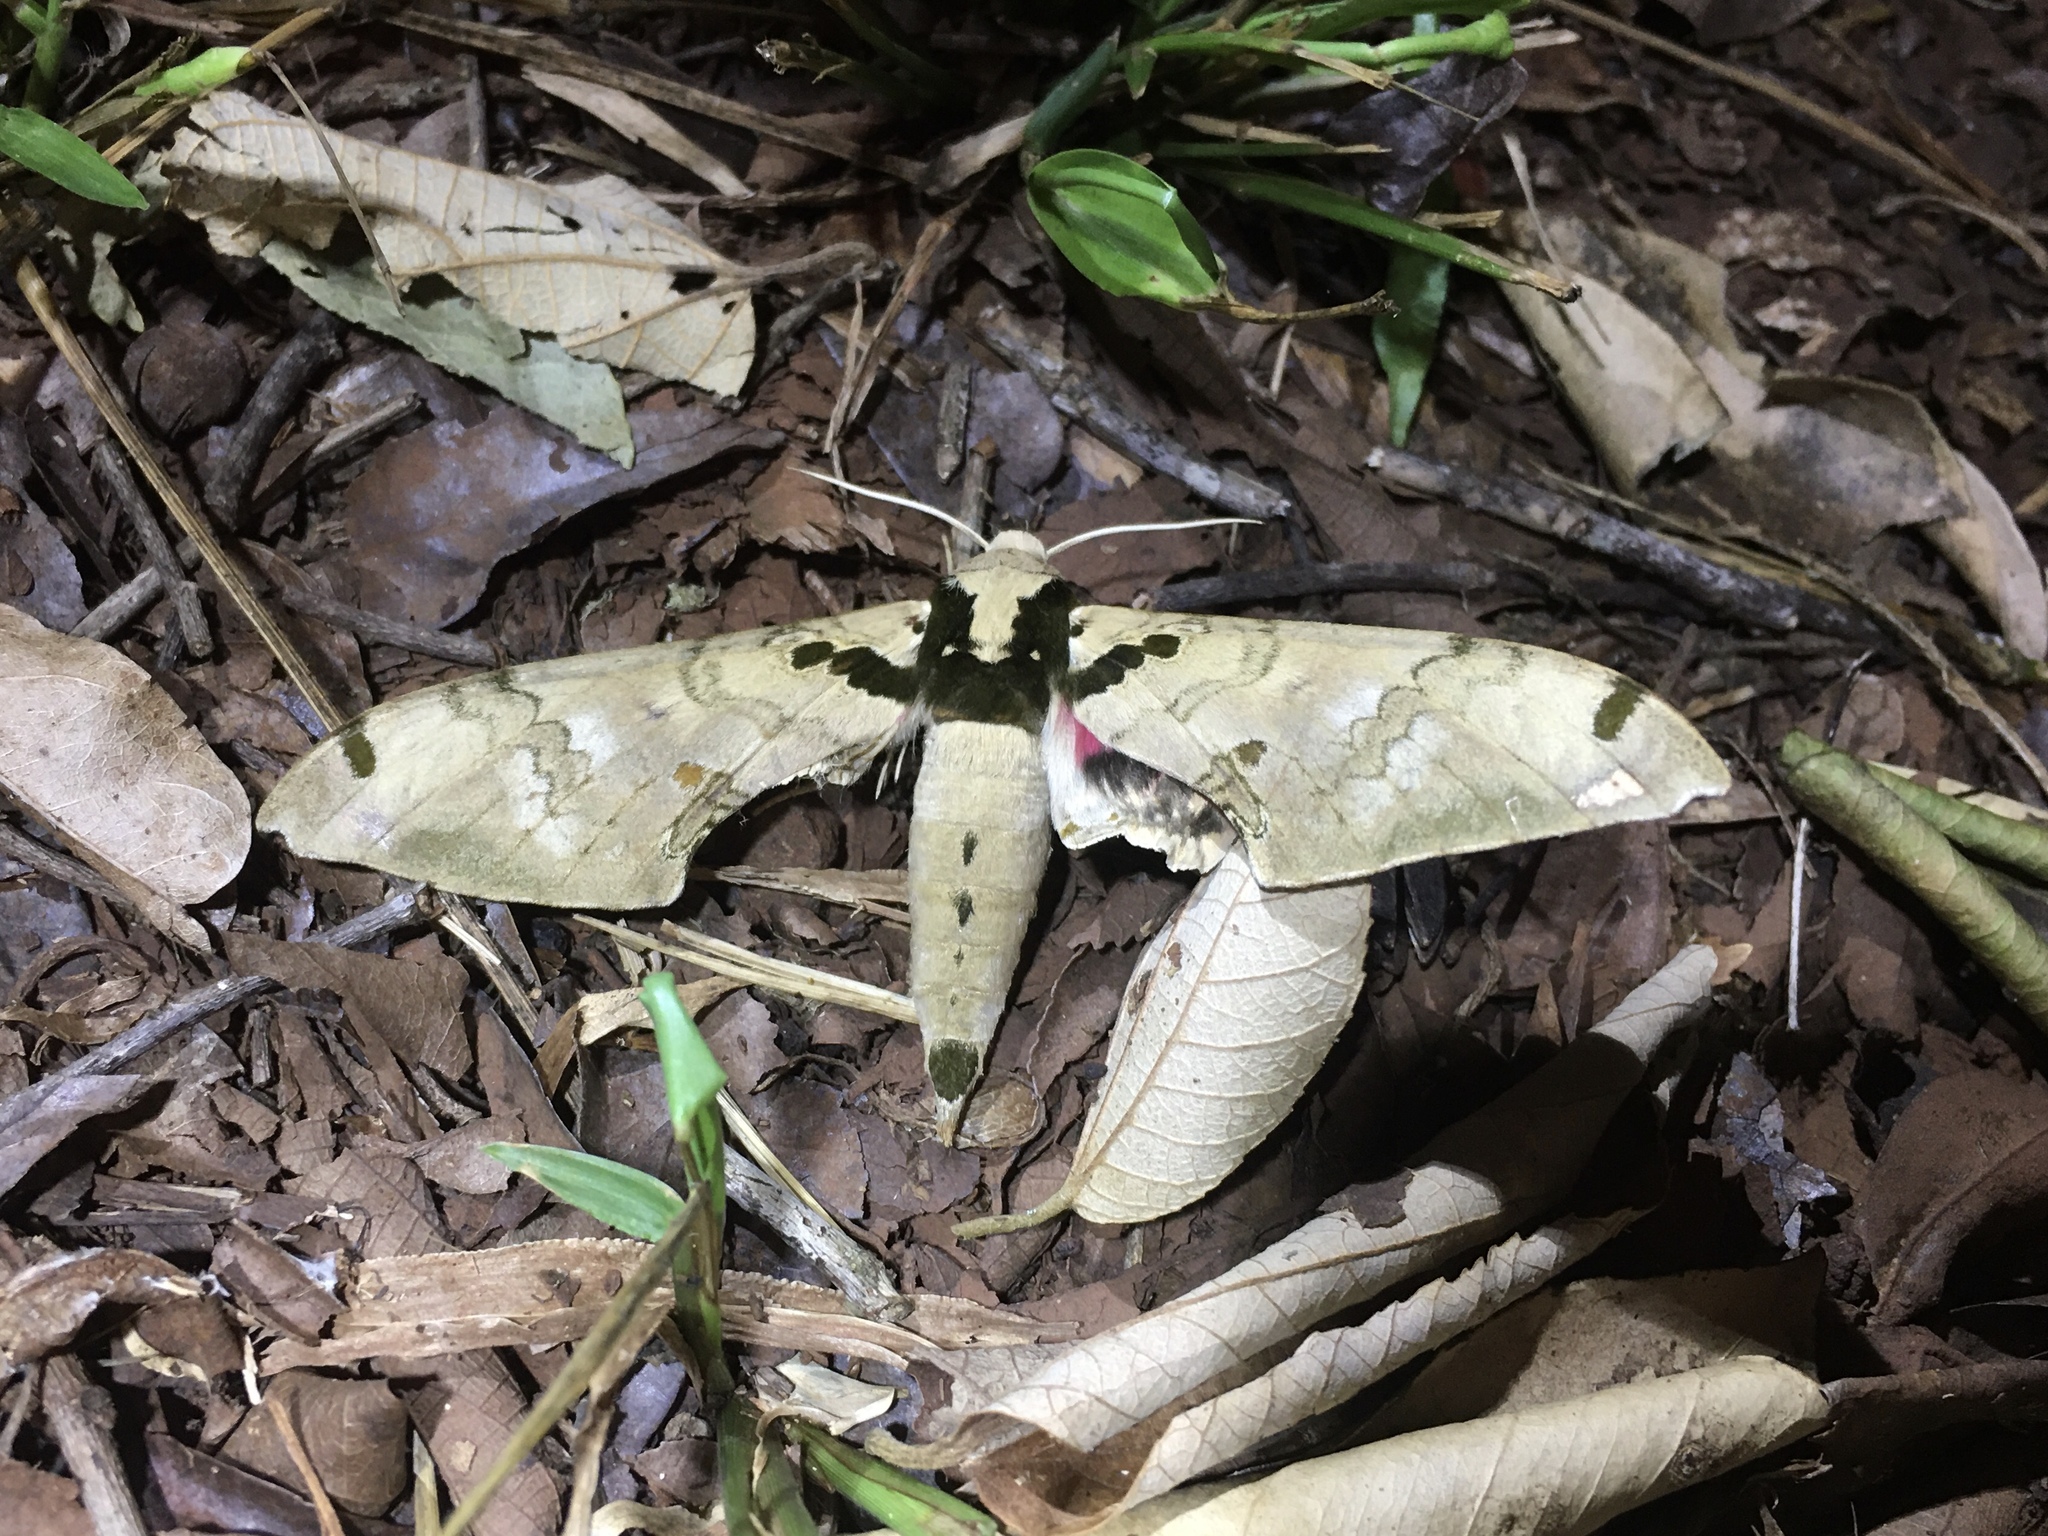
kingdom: Animalia
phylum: Arthropoda
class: Insecta
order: Lepidoptera
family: Sphingidae
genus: Adhemarius
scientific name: Adhemarius daphne
